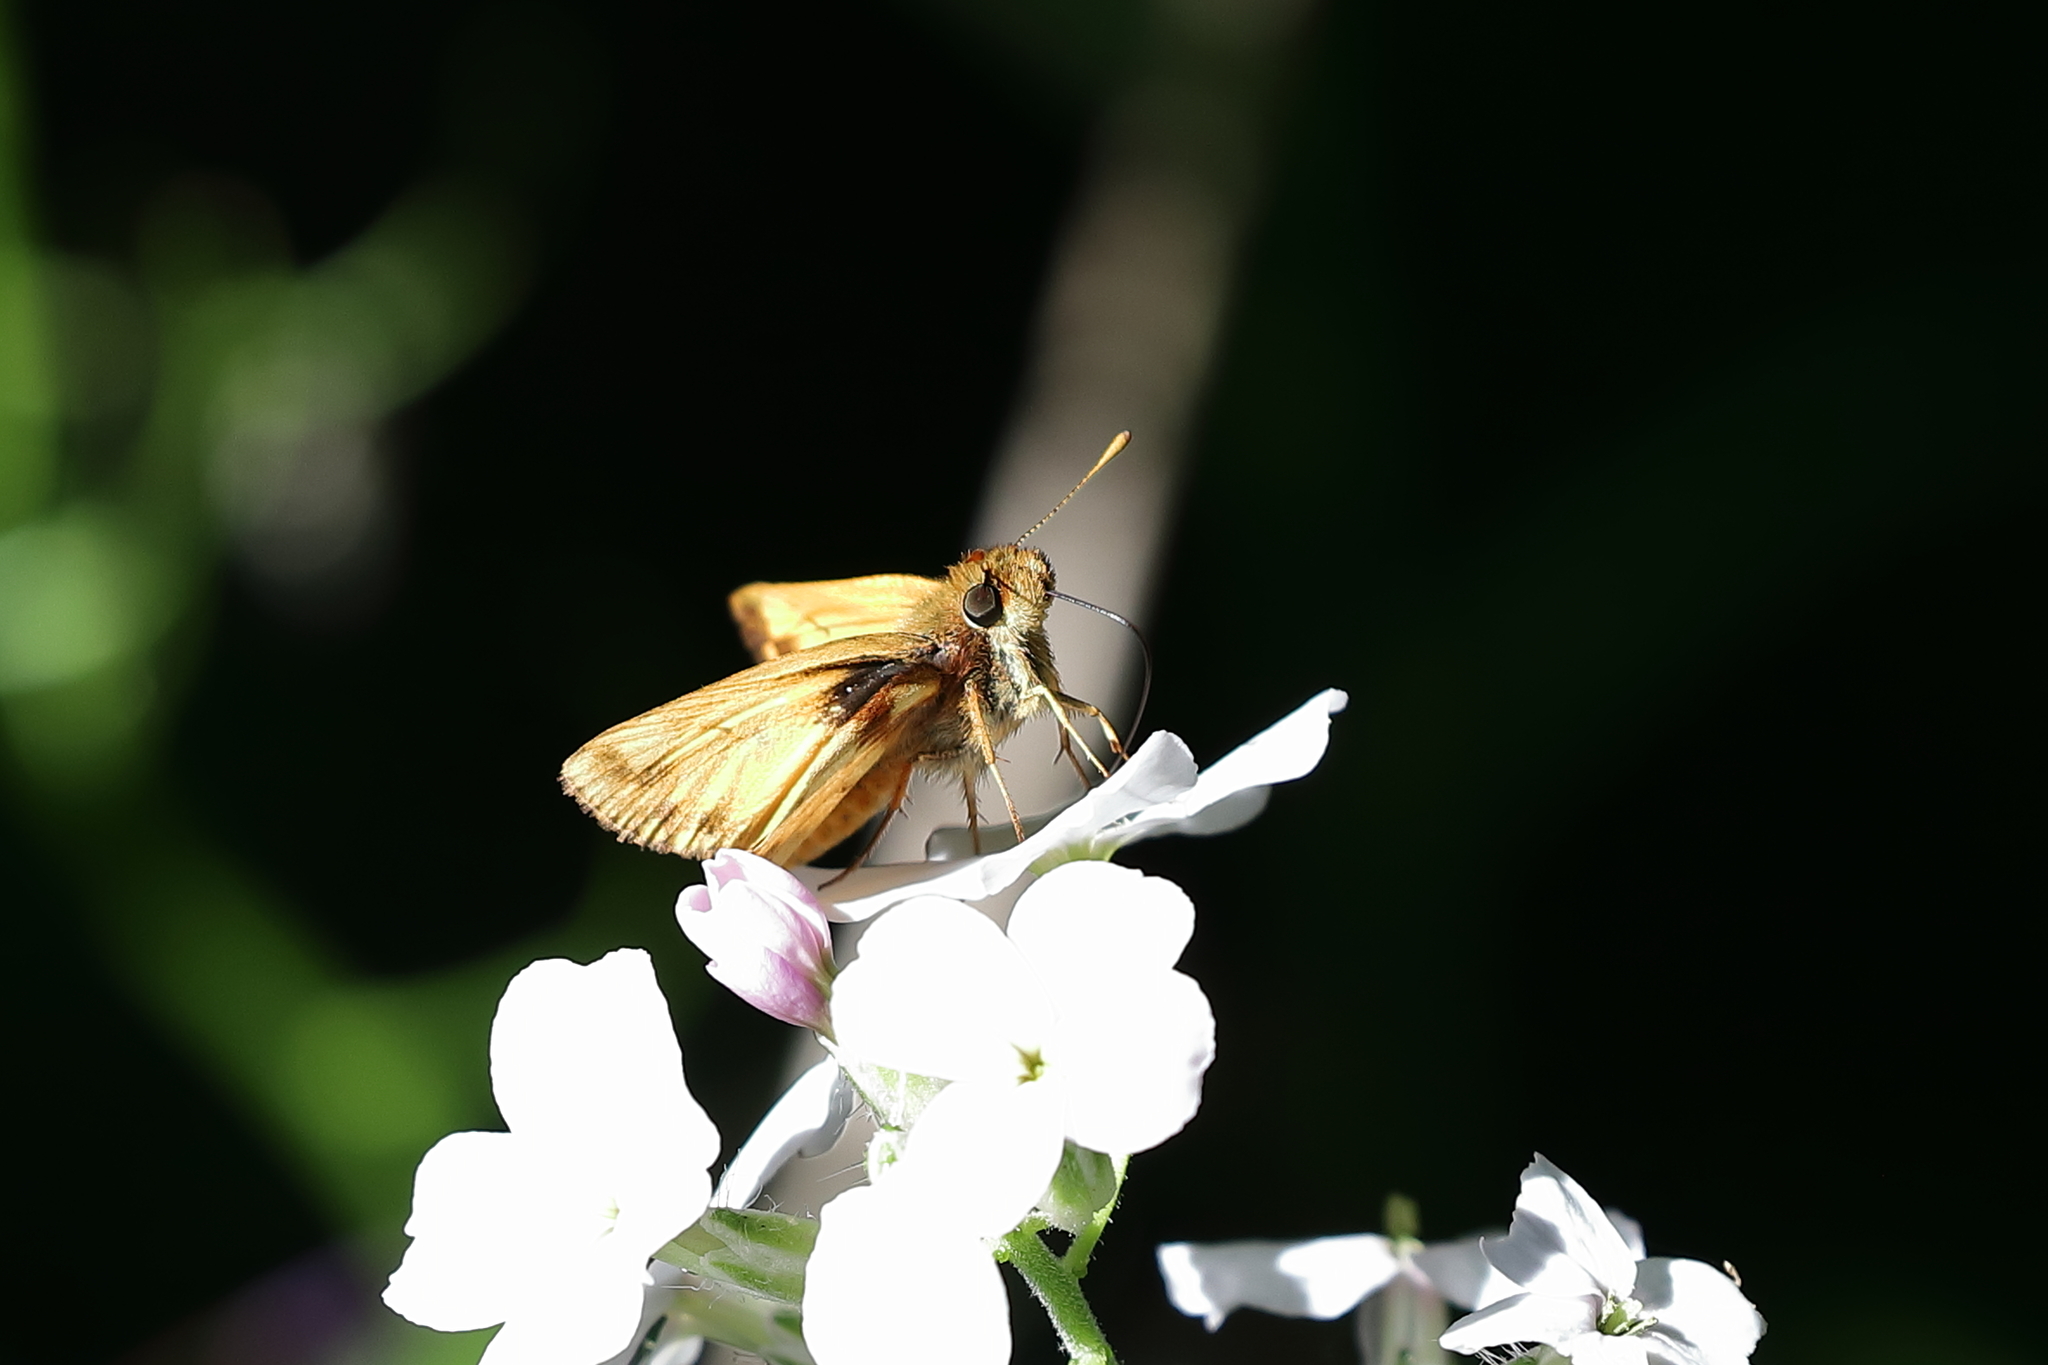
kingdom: Animalia
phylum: Arthropoda
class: Insecta
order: Lepidoptera
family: Hesperiidae
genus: Lon
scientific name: Lon zabulon
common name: Zabulon skipper
